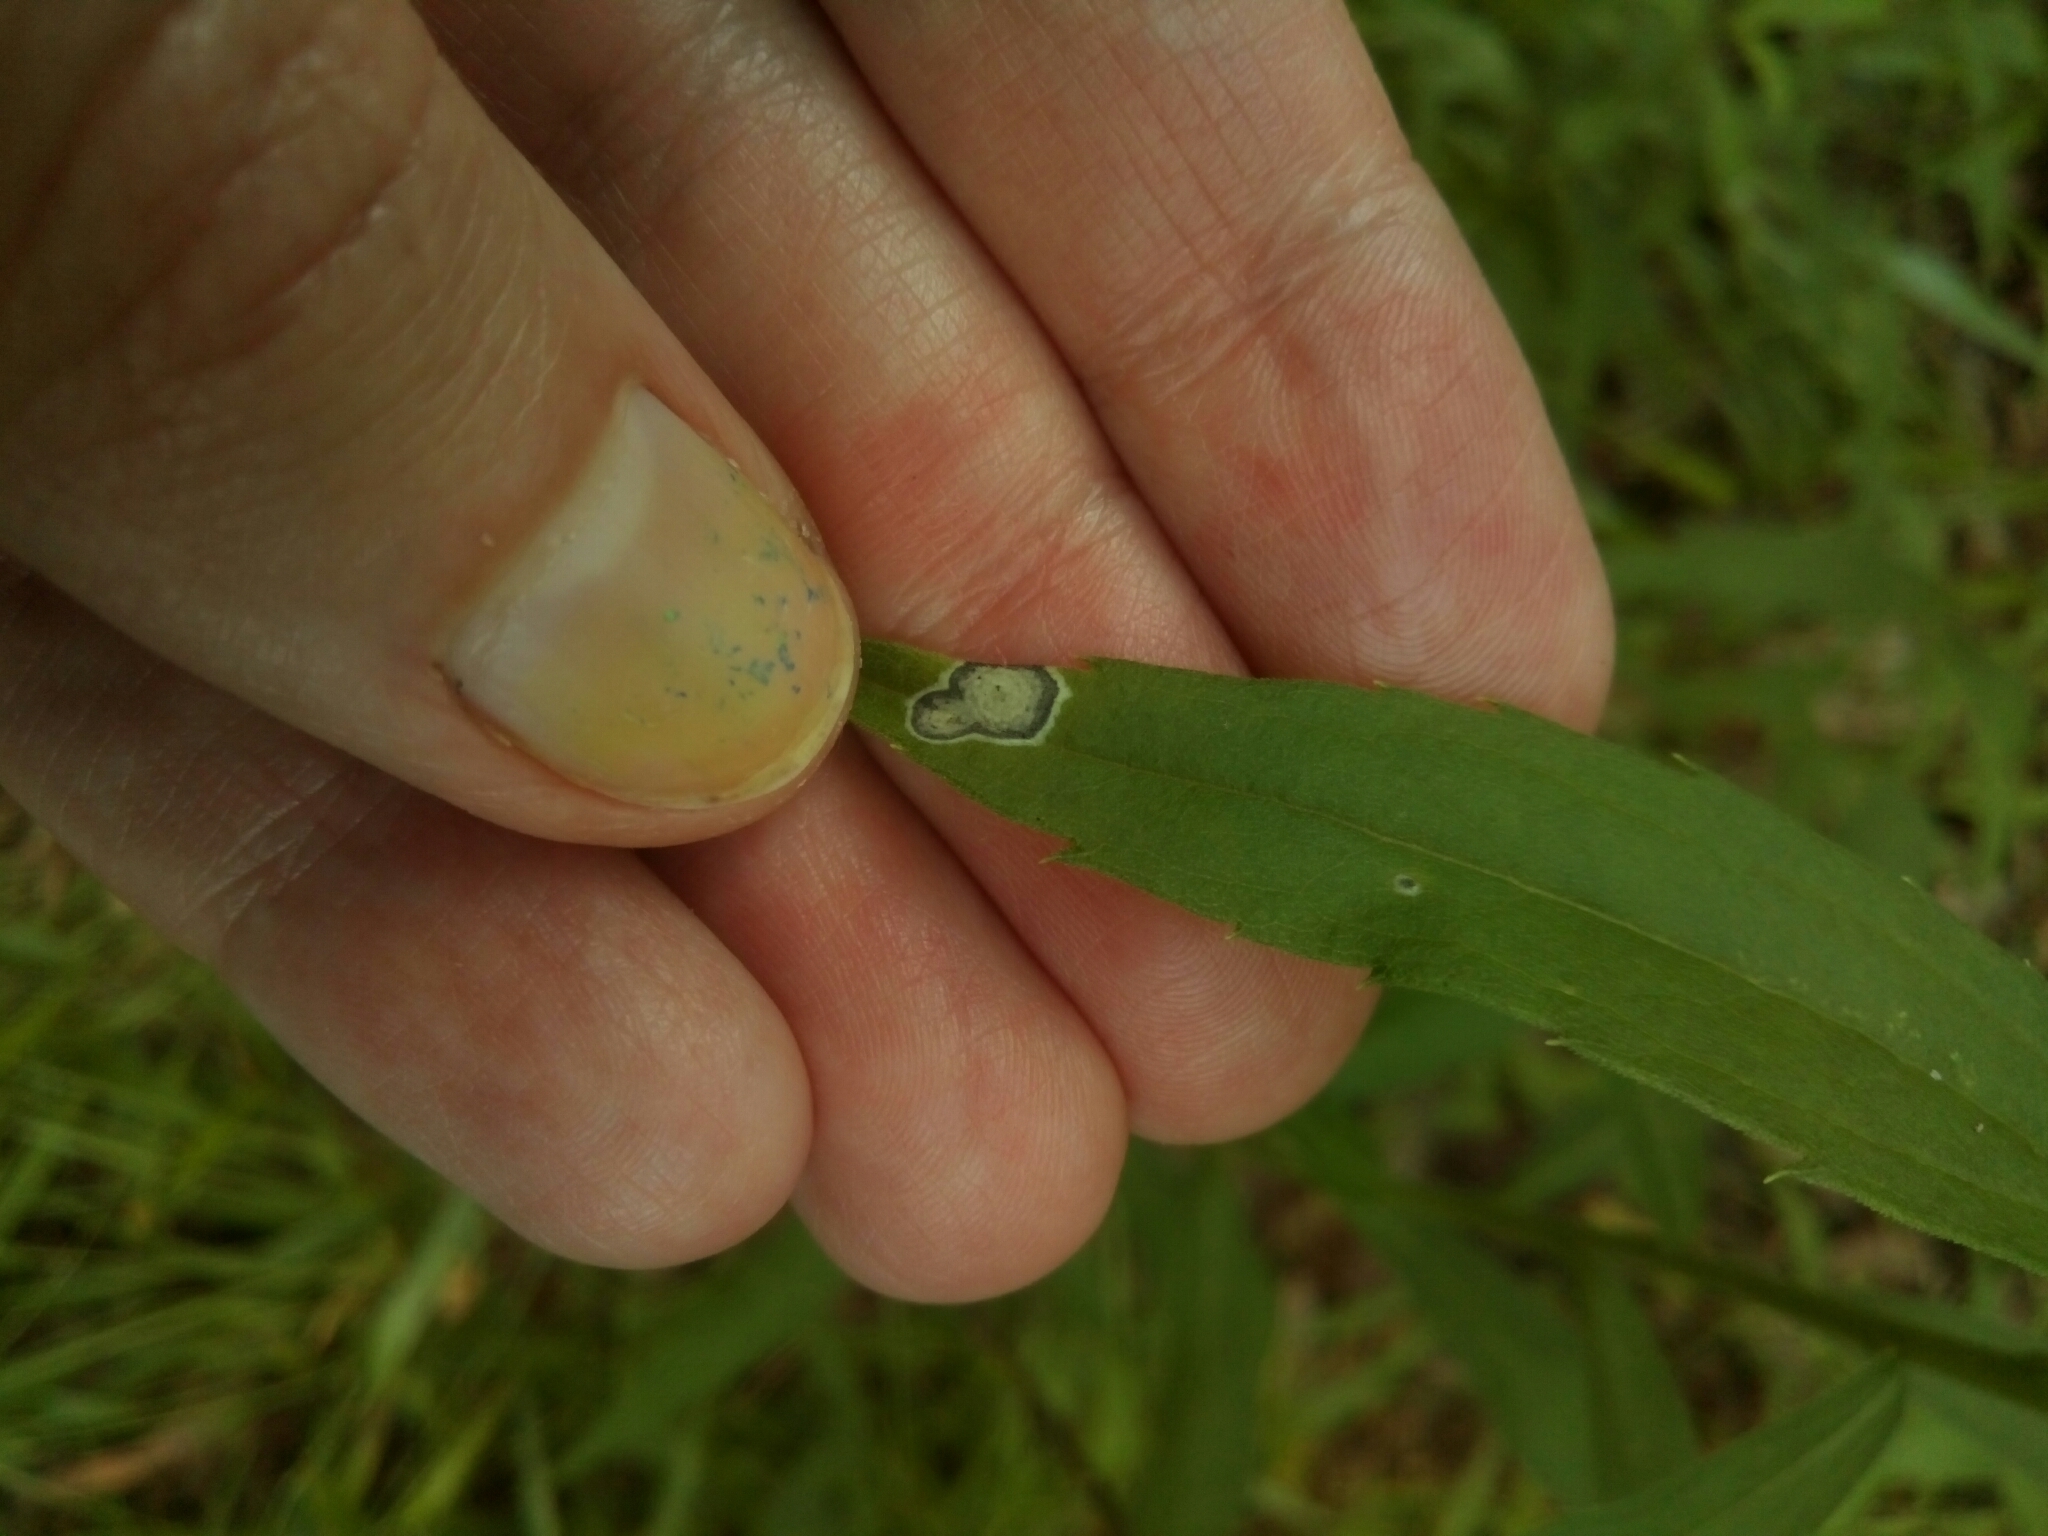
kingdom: Animalia
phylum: Arthropoda
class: Insecta
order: Diptera
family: Cecidomyiidae
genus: Asteromyia
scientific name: Asteromyia carbonifera
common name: Carbonifera goldenrod gall midge
